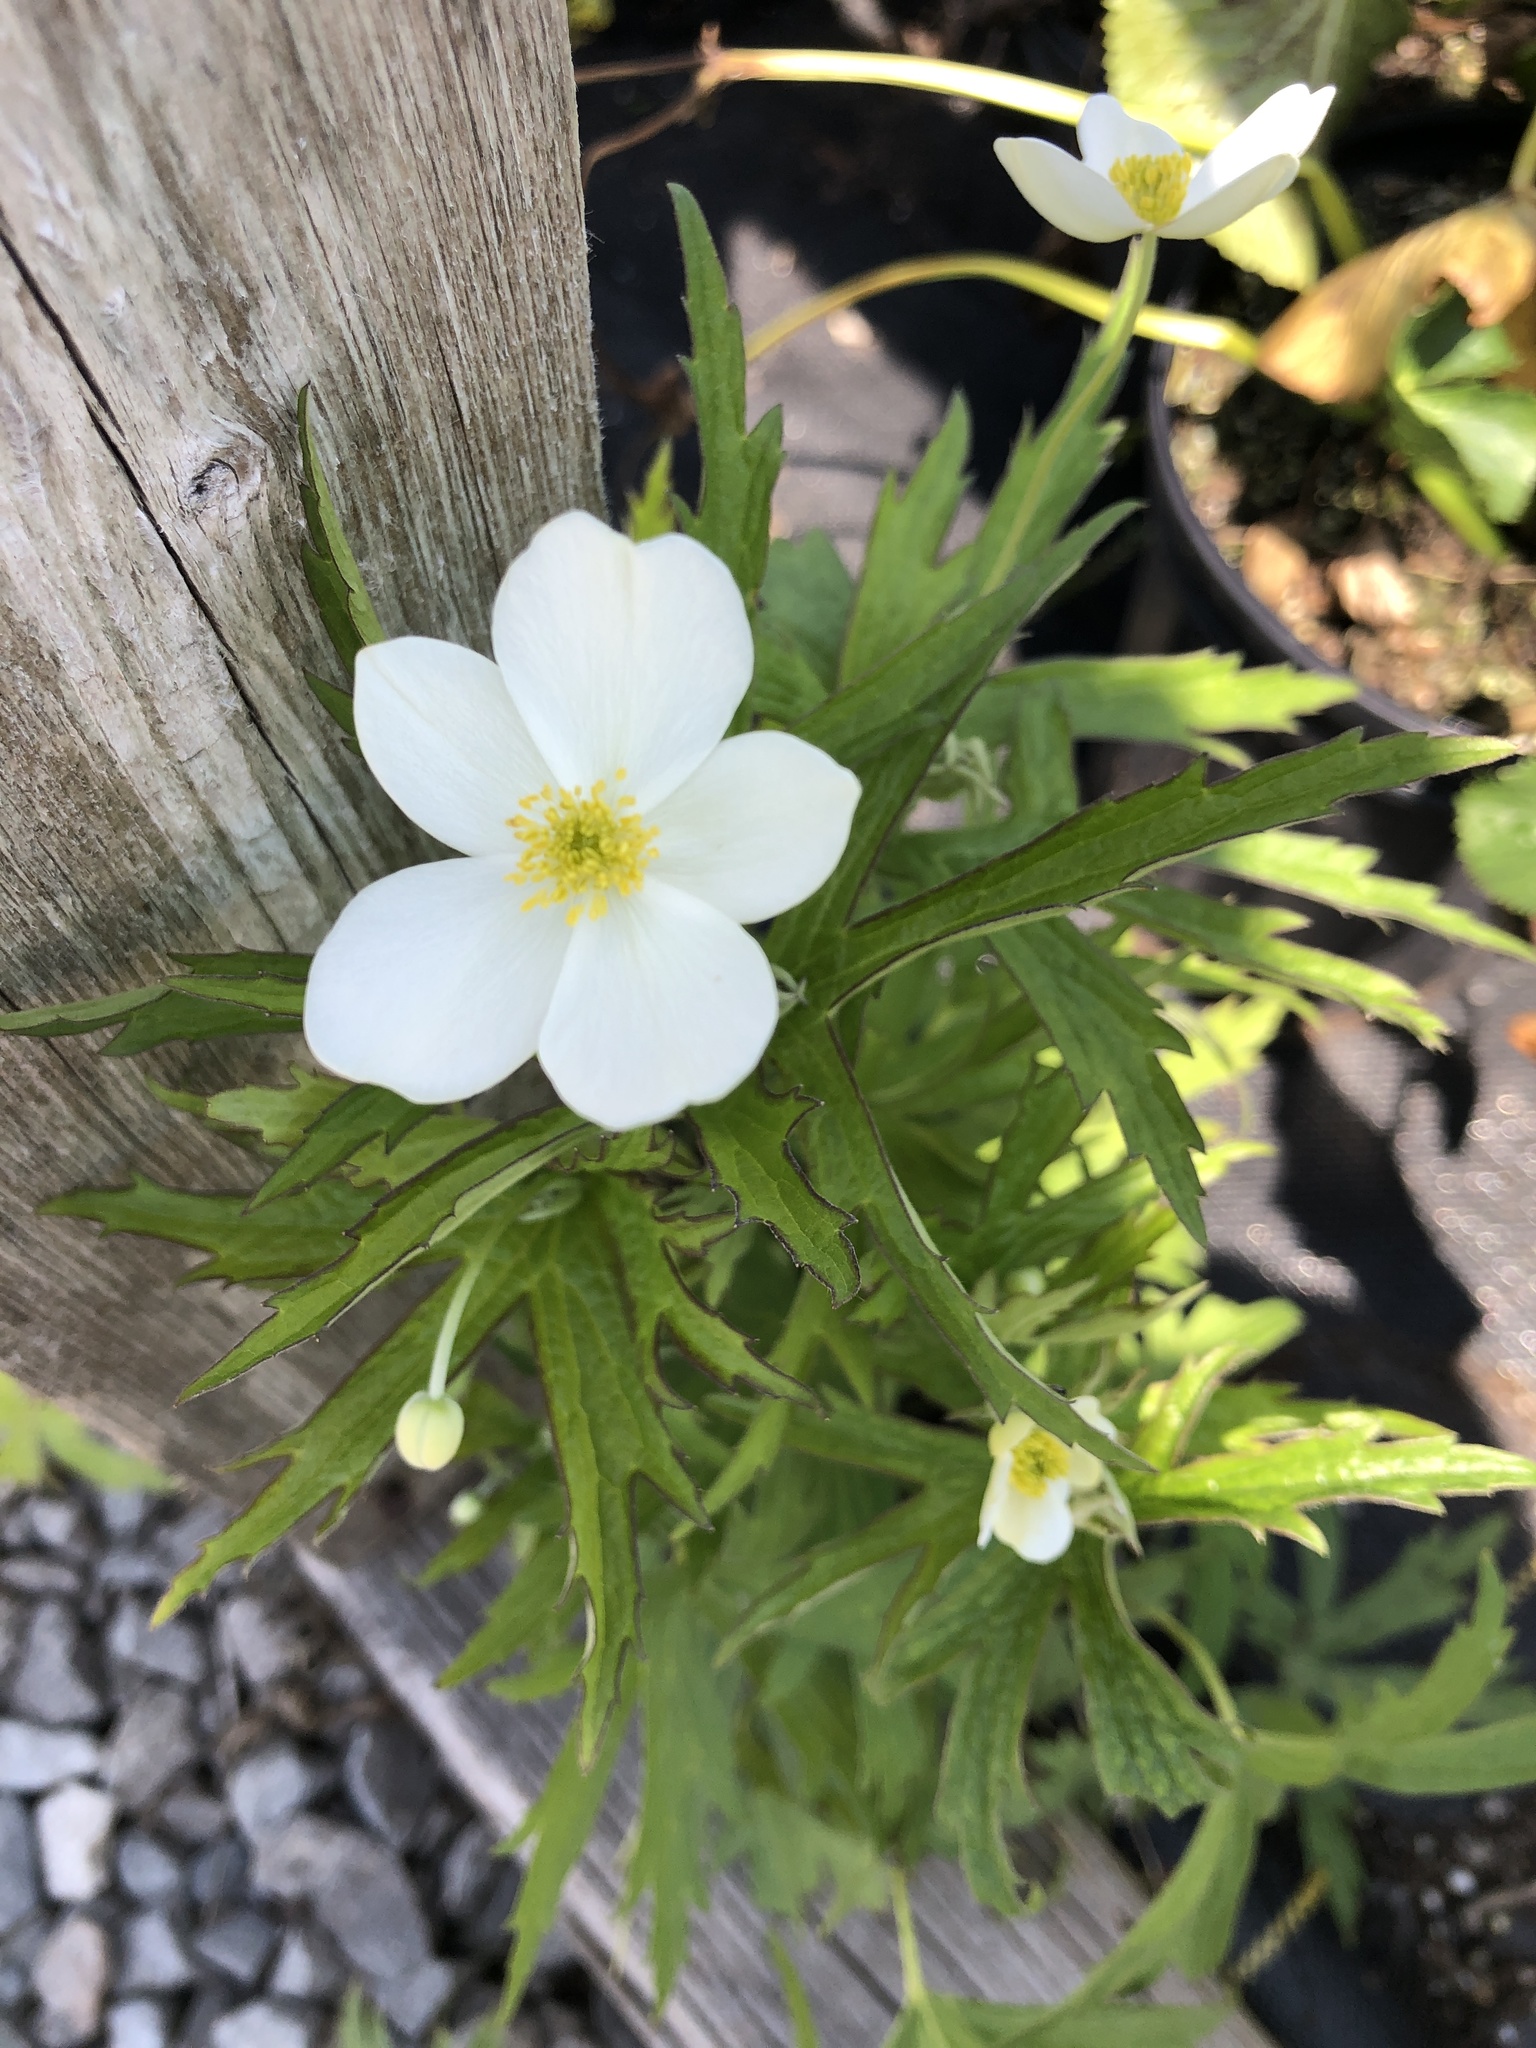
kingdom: Plantae
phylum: Tracheophyta
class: Magnoliopsida
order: Ranunculales
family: Ranunculaceae
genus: Anemonastrum
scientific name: Anemonastrum canadense
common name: Canada anemone
